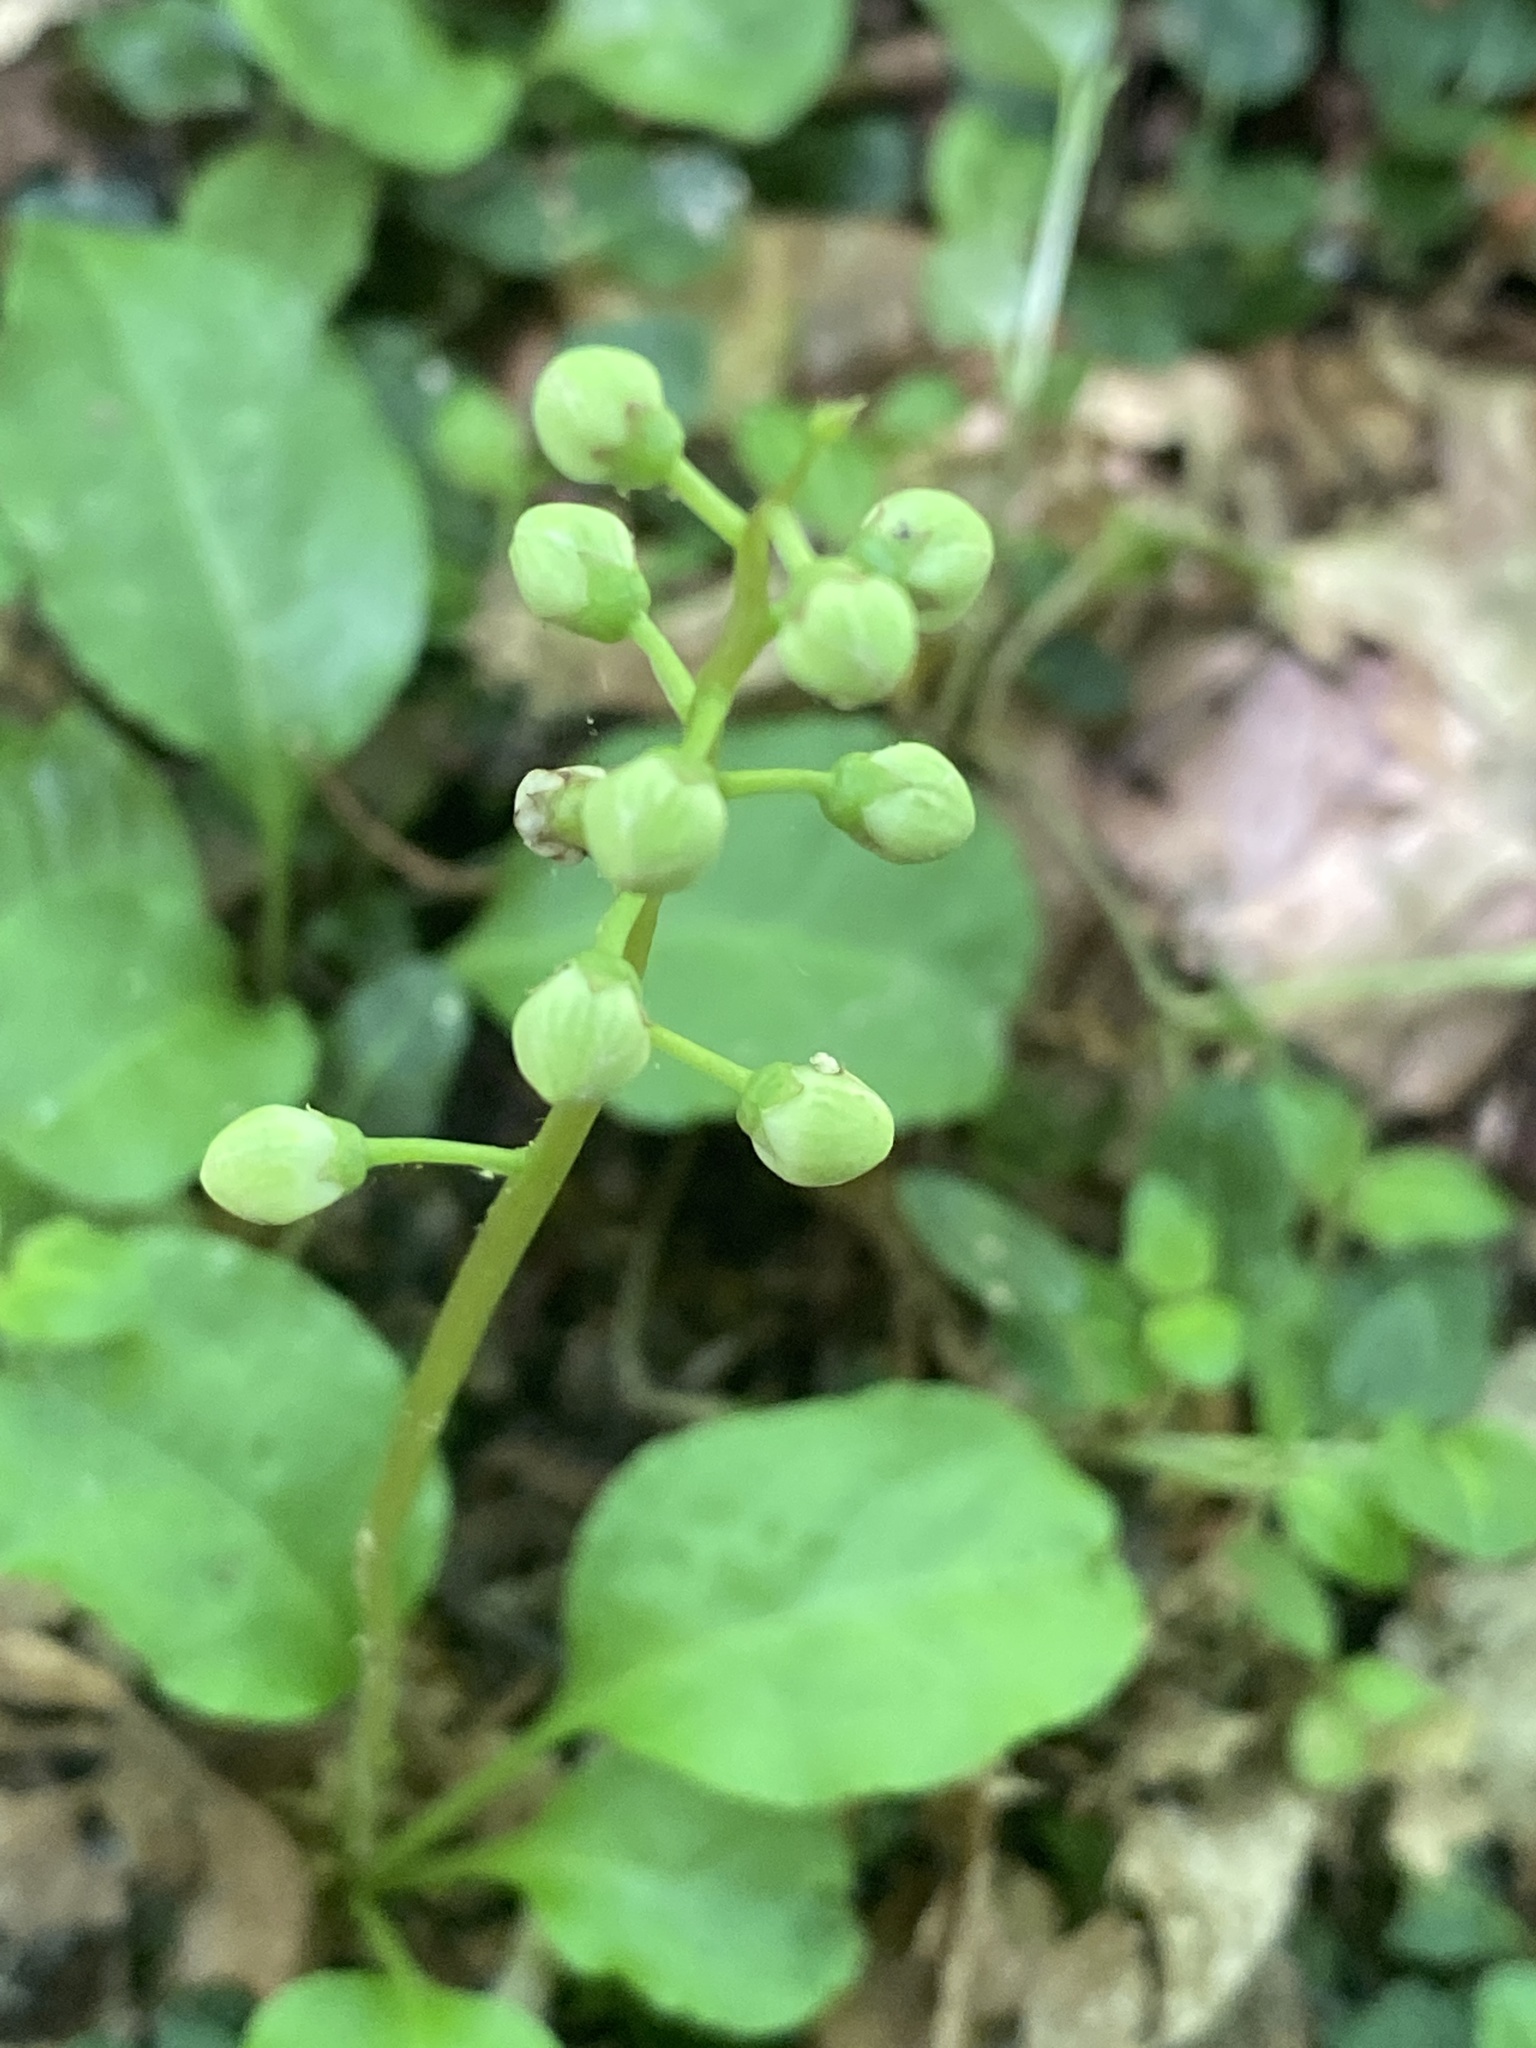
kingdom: Plantae
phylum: Tracheophyta
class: Magnoliopsida
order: Ericales
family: Ericaceae
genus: Pyrola
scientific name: Pyrola elliptica
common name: Shinleaf
